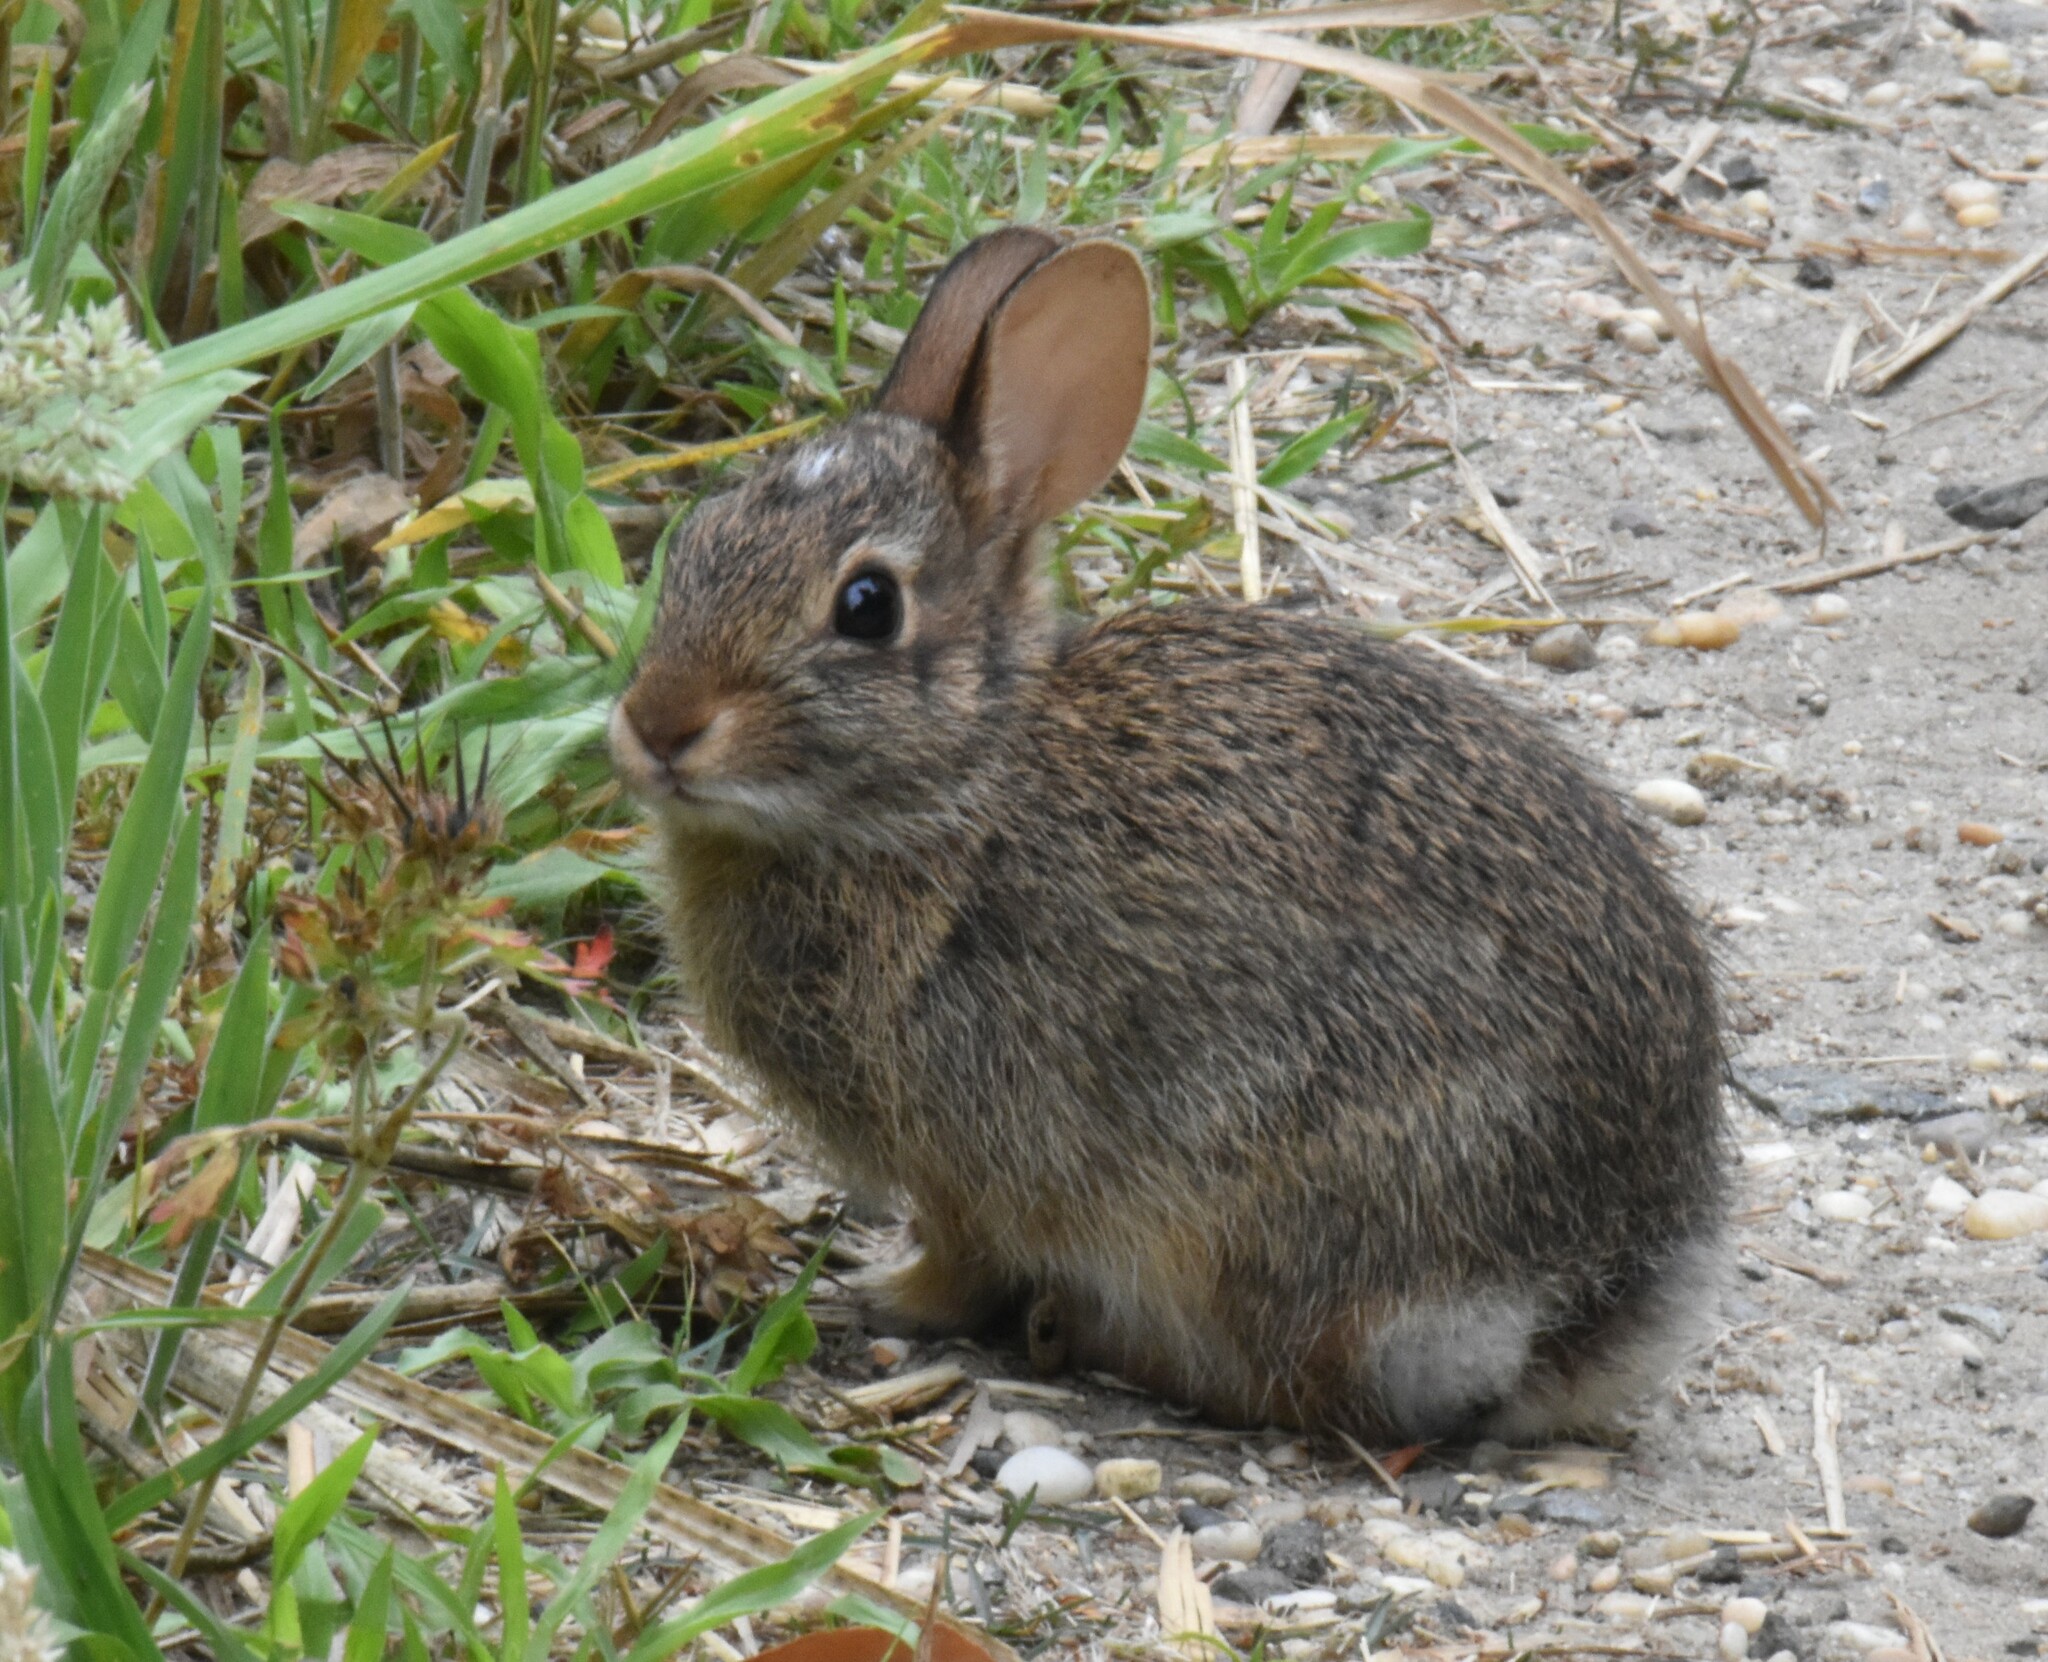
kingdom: Animalia
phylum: Chordata
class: Mammalia
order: Lagomorpha
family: Leporidae
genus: Sylvilagus
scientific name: Sylvilagus floridanus
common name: Eastern cottontail
